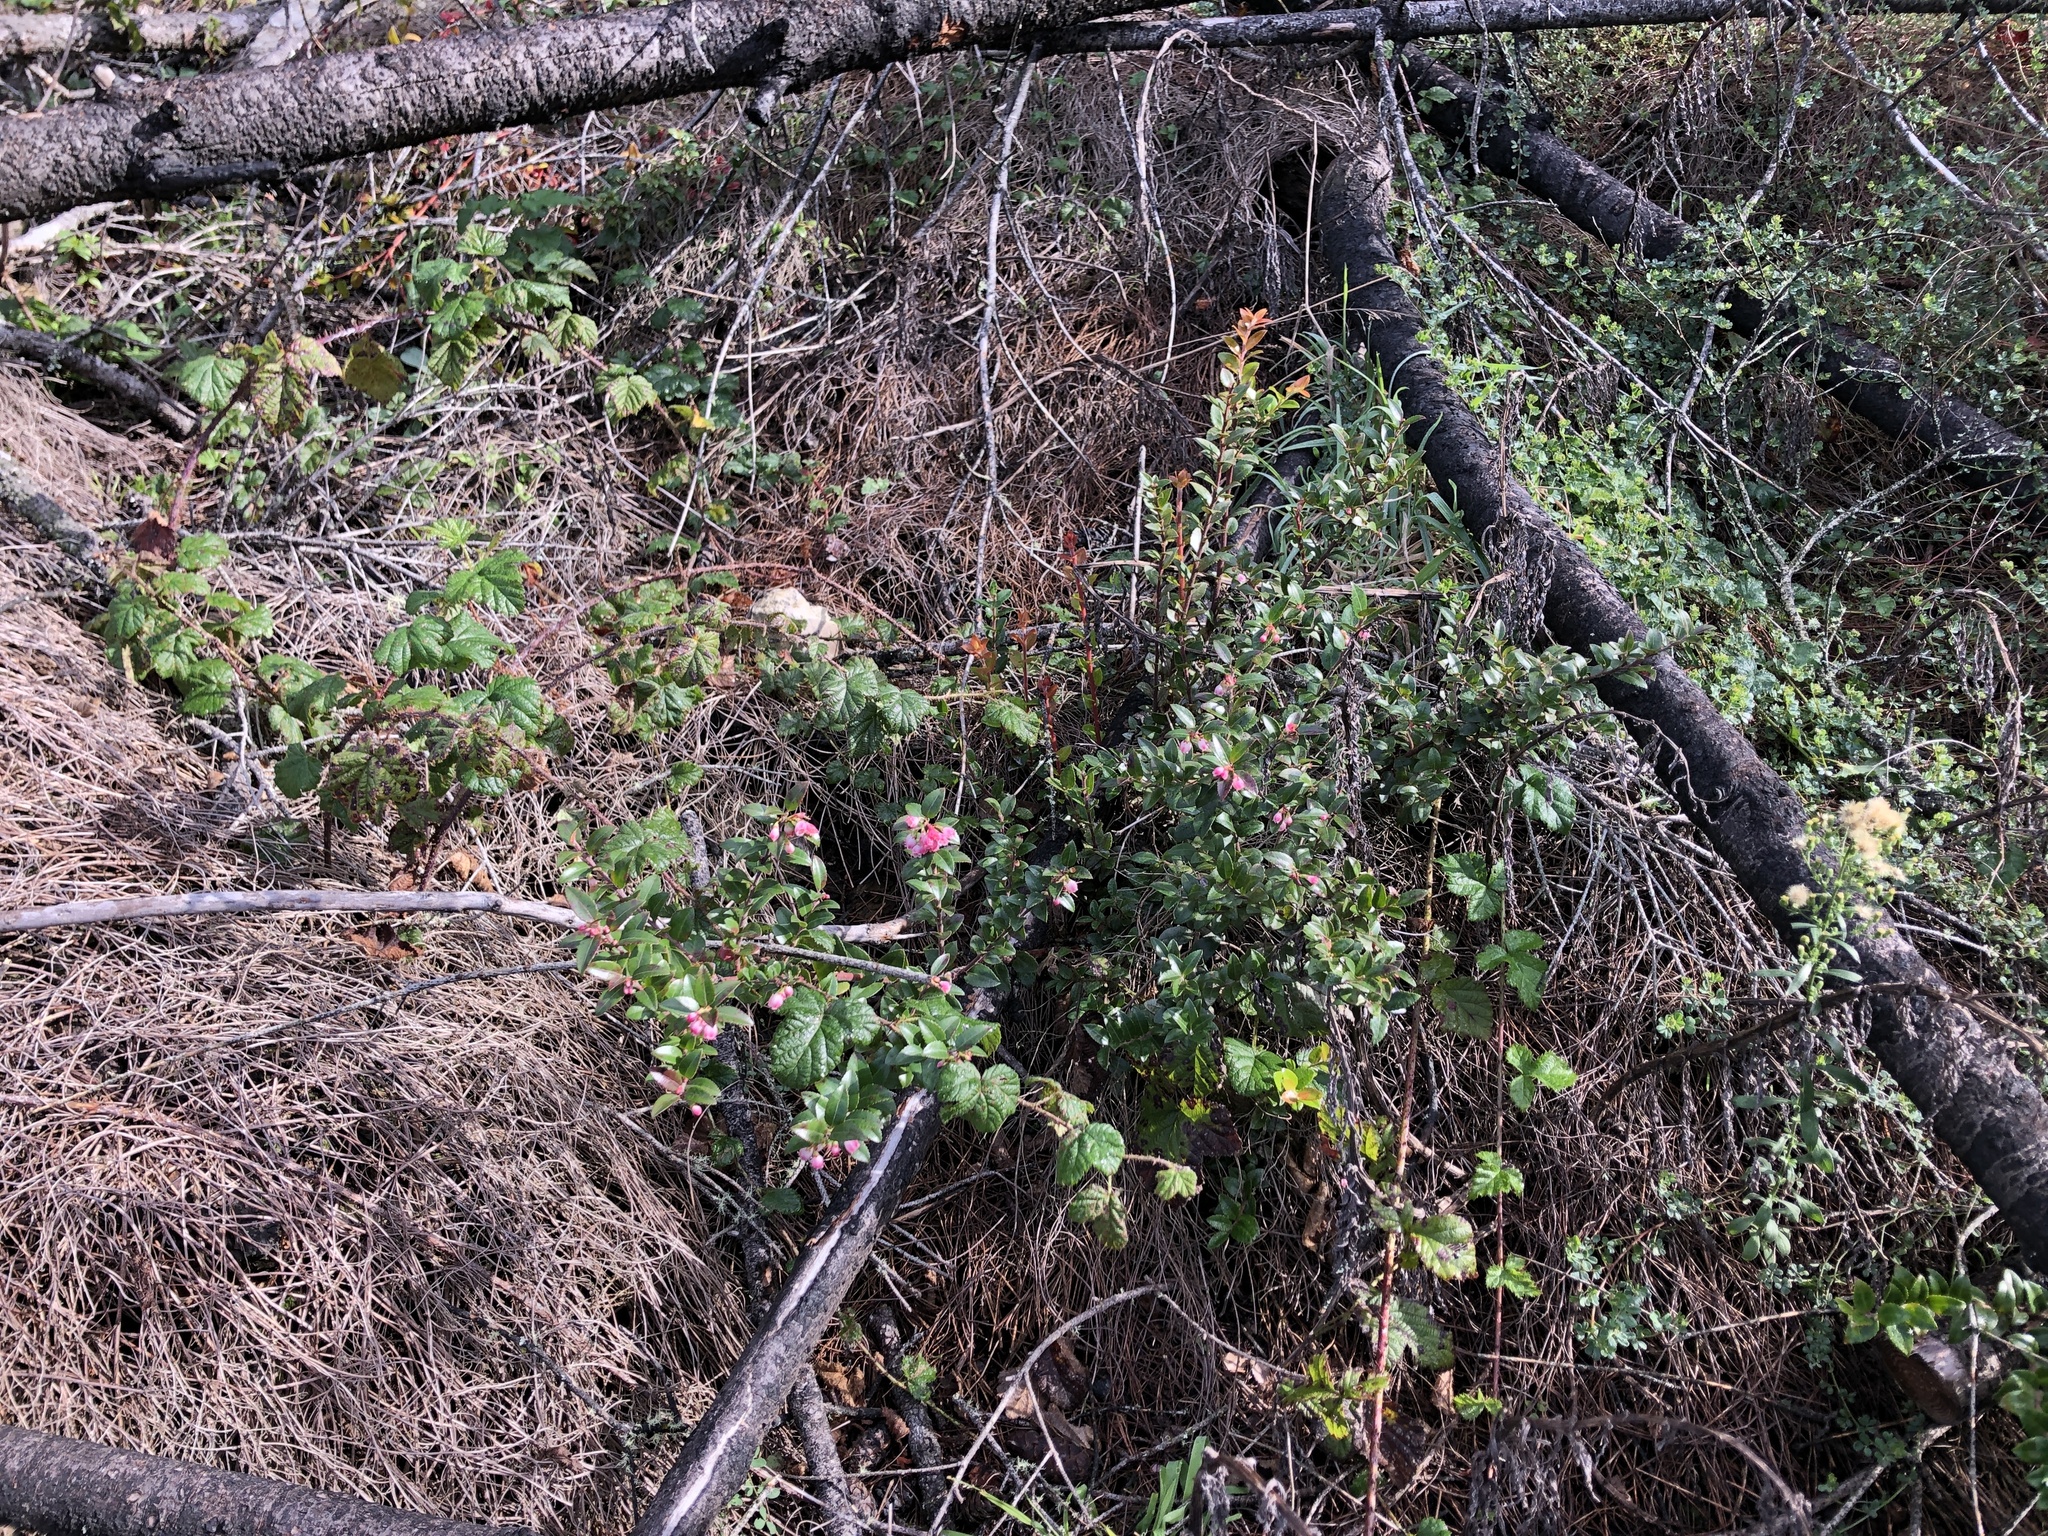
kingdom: Plantae
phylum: Tracheophyta
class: Magnoliopsida
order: Ericales
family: Ericaceae
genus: Vaccinium
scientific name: Vaccinium ovatum
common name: California-huckleberry
